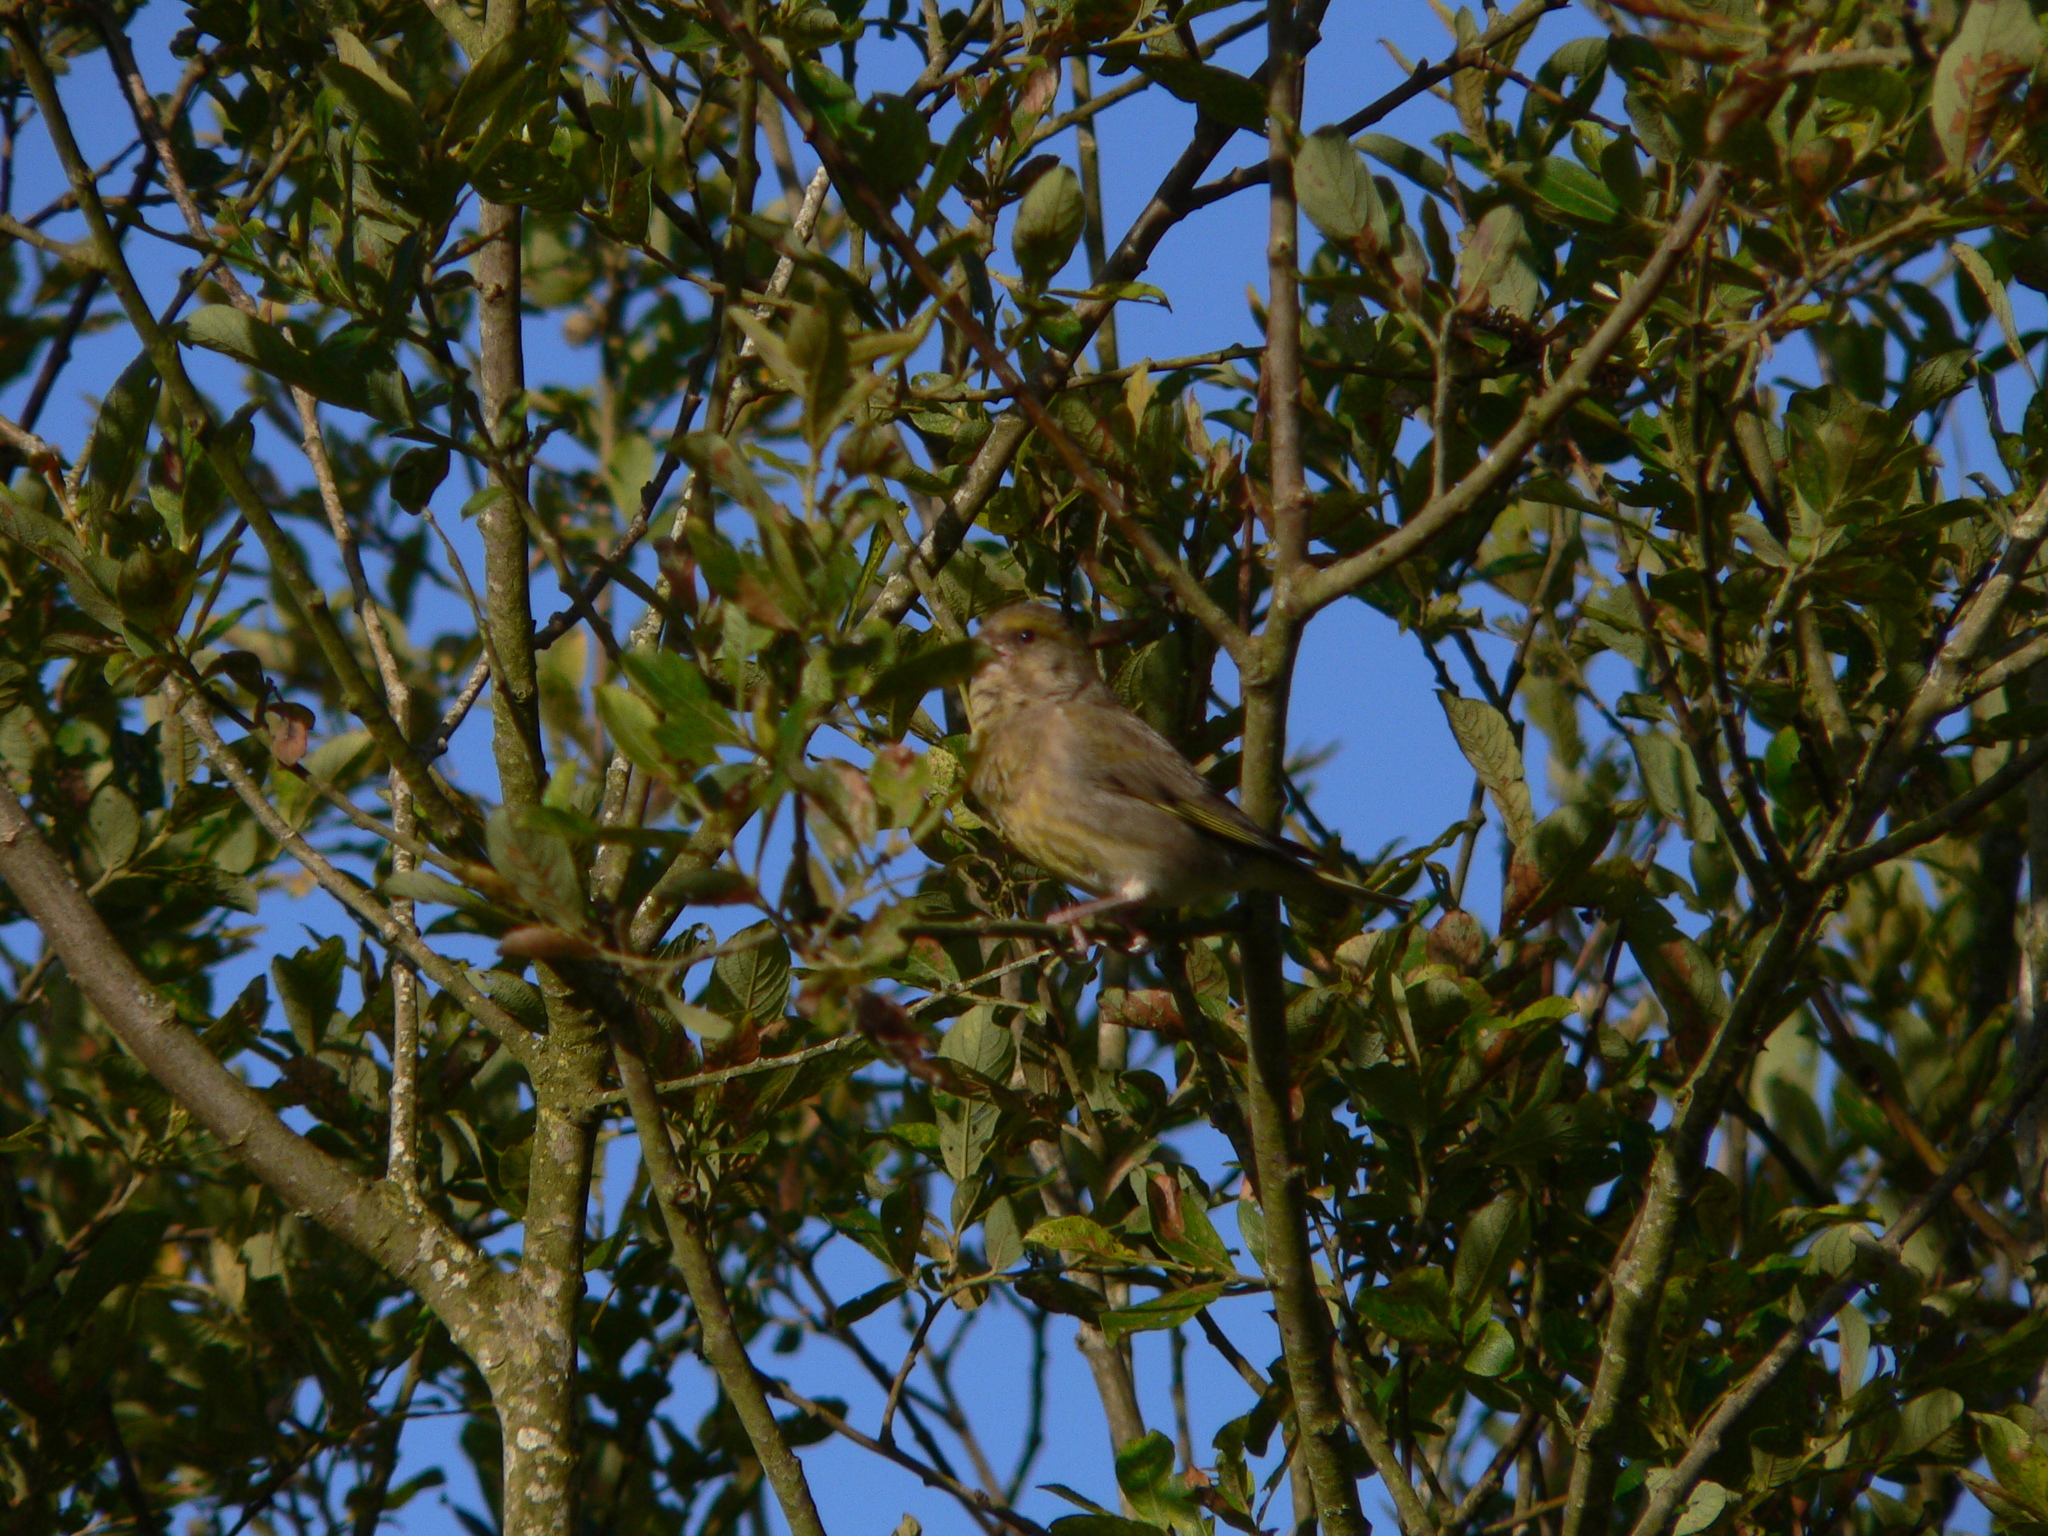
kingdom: Plantae
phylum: Tracheophyta
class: Liliopsida
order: Poales
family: Poaceae
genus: Chloris
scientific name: Chloris chloris
